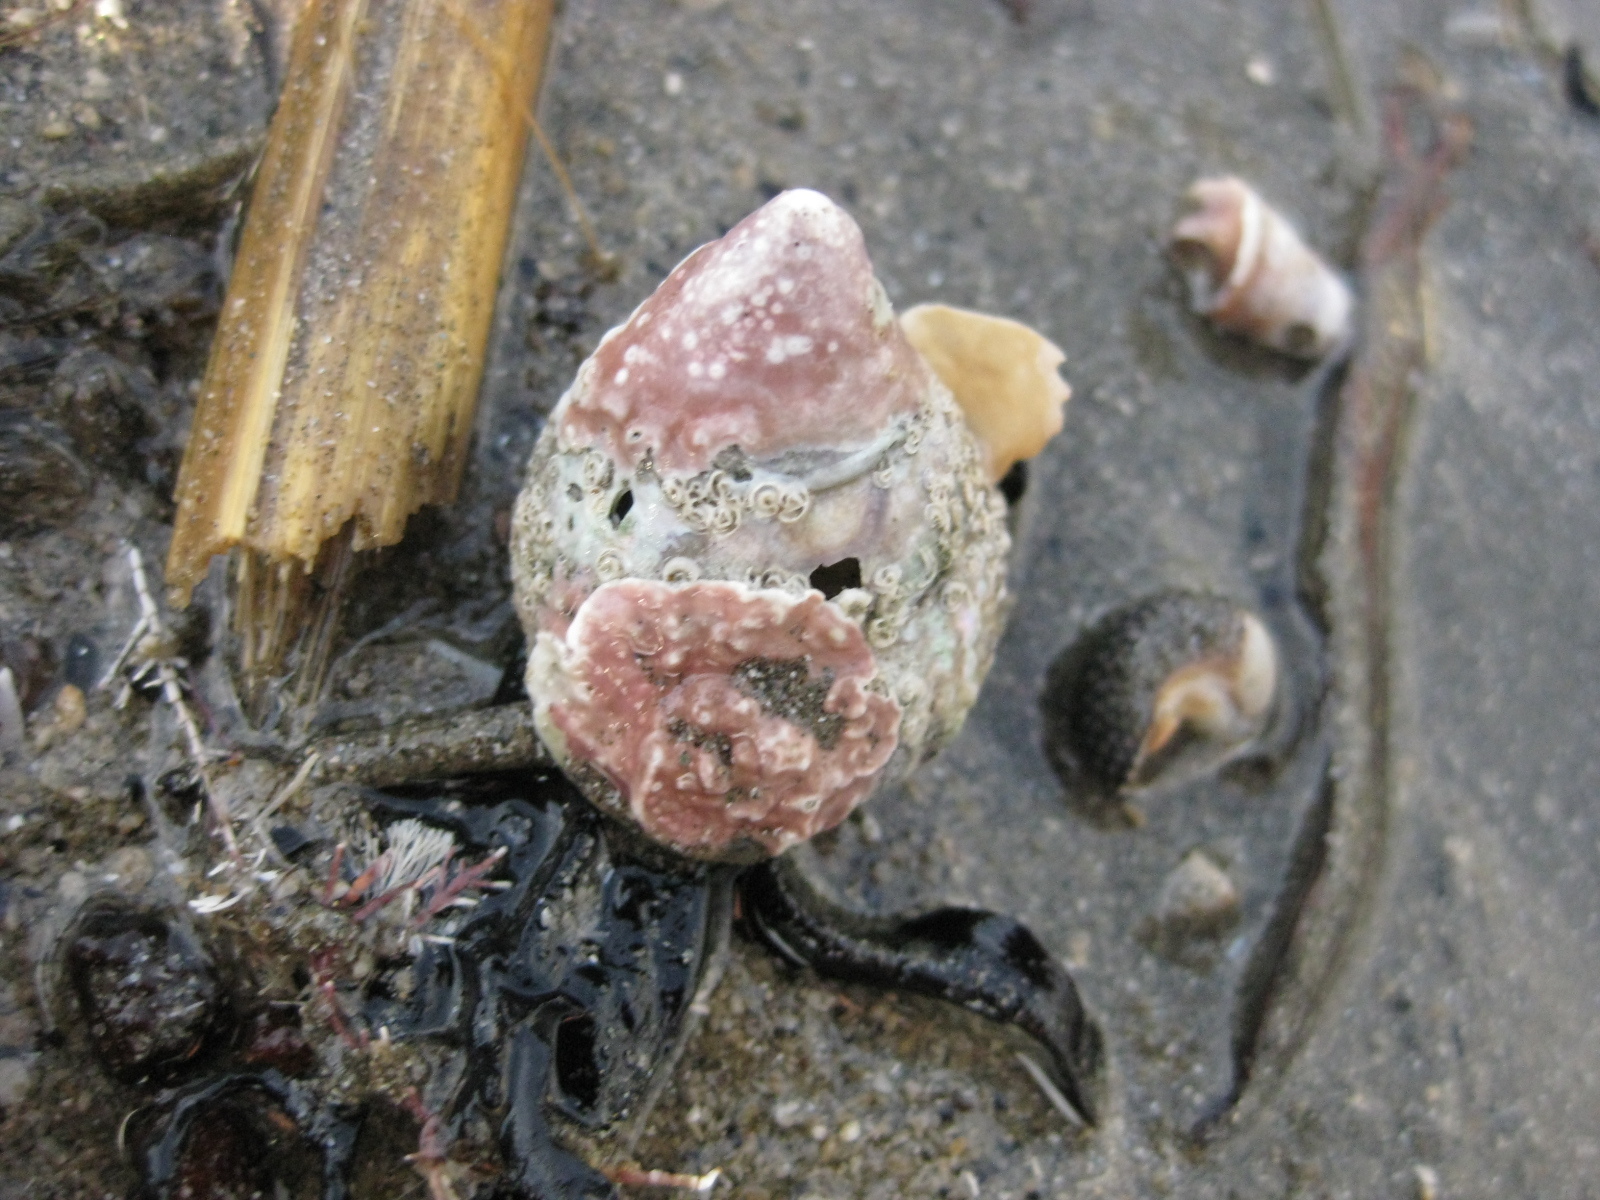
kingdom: Animalia
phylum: Mollusca
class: Gastropoda
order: Trochida
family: Trochidae
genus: Coelotrochus
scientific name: Coelotrochus viridis
